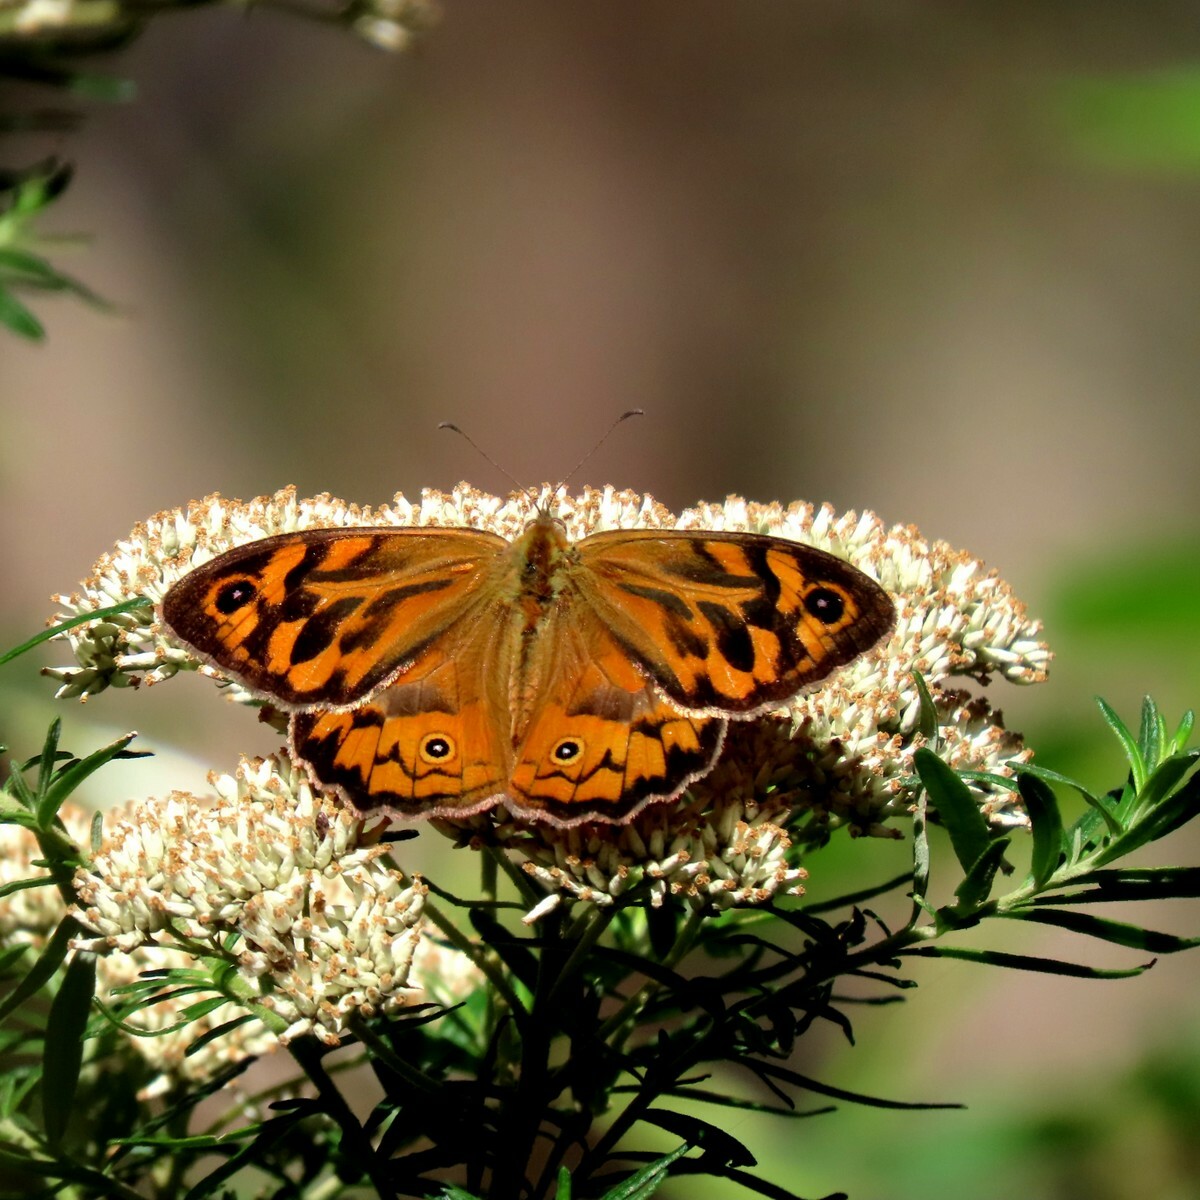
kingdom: Animalia
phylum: Arthropoda
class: Insecta
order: Lepidoptera
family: Nymphalidae
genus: Heteronympha
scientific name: Heteronympha merope
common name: Common brown
